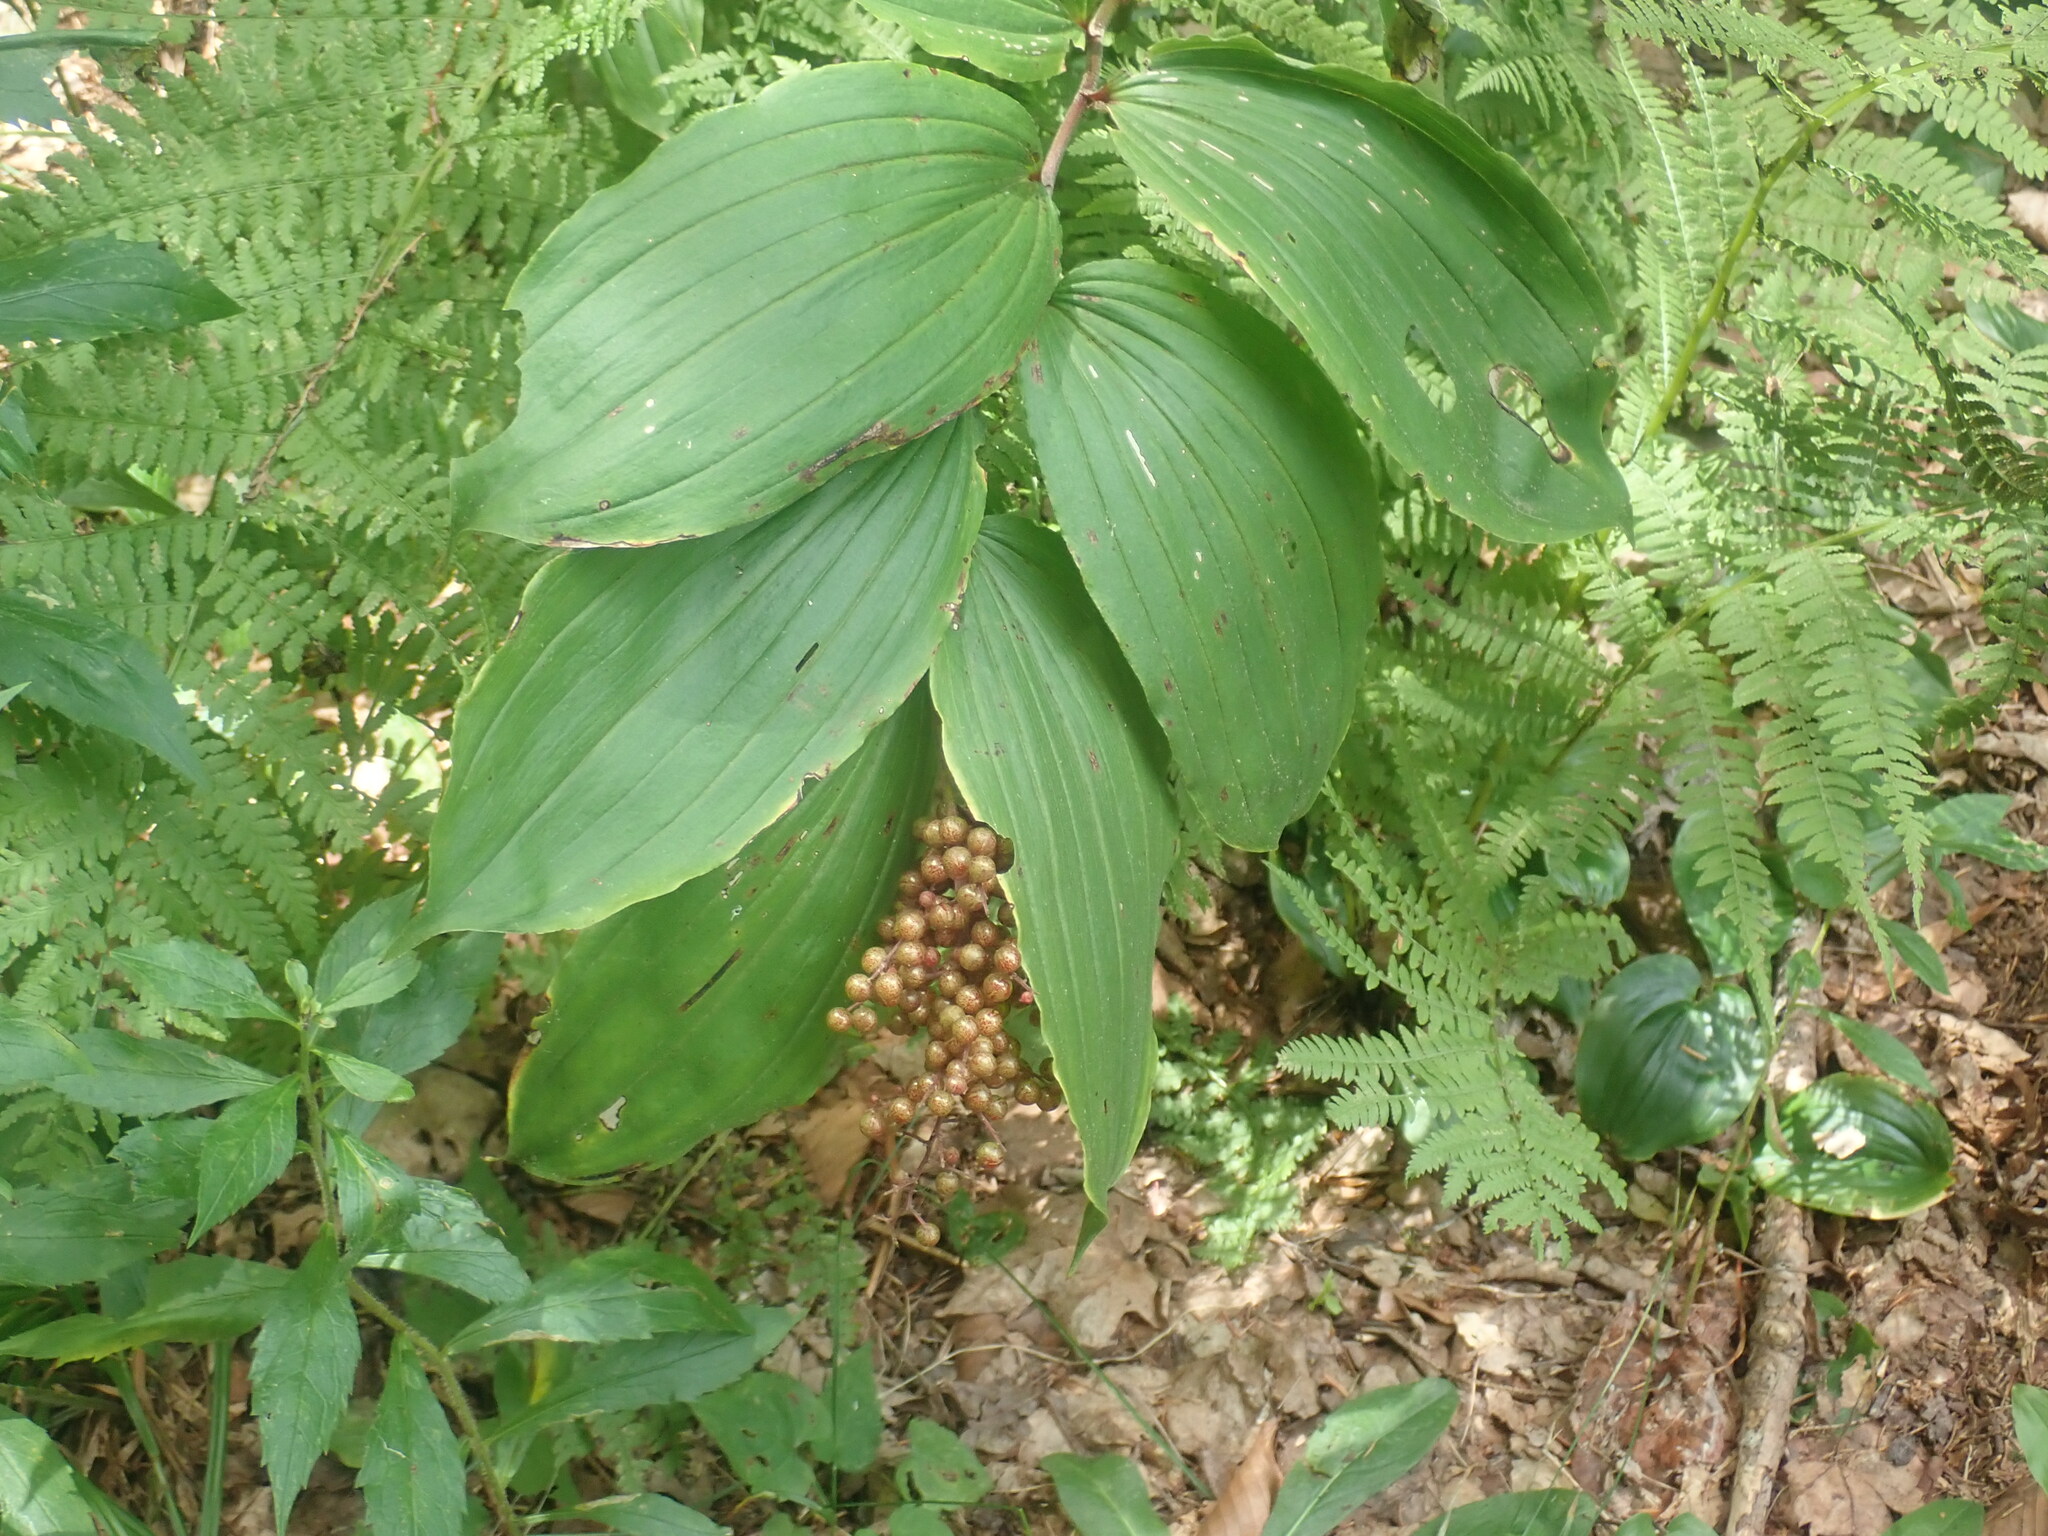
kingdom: Plantae
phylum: Tracheophyta
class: Liliopsida
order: Asparagales
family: Asparagaceae
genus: Maianthemum
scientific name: Maianthemum racemosum
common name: False spikenard
